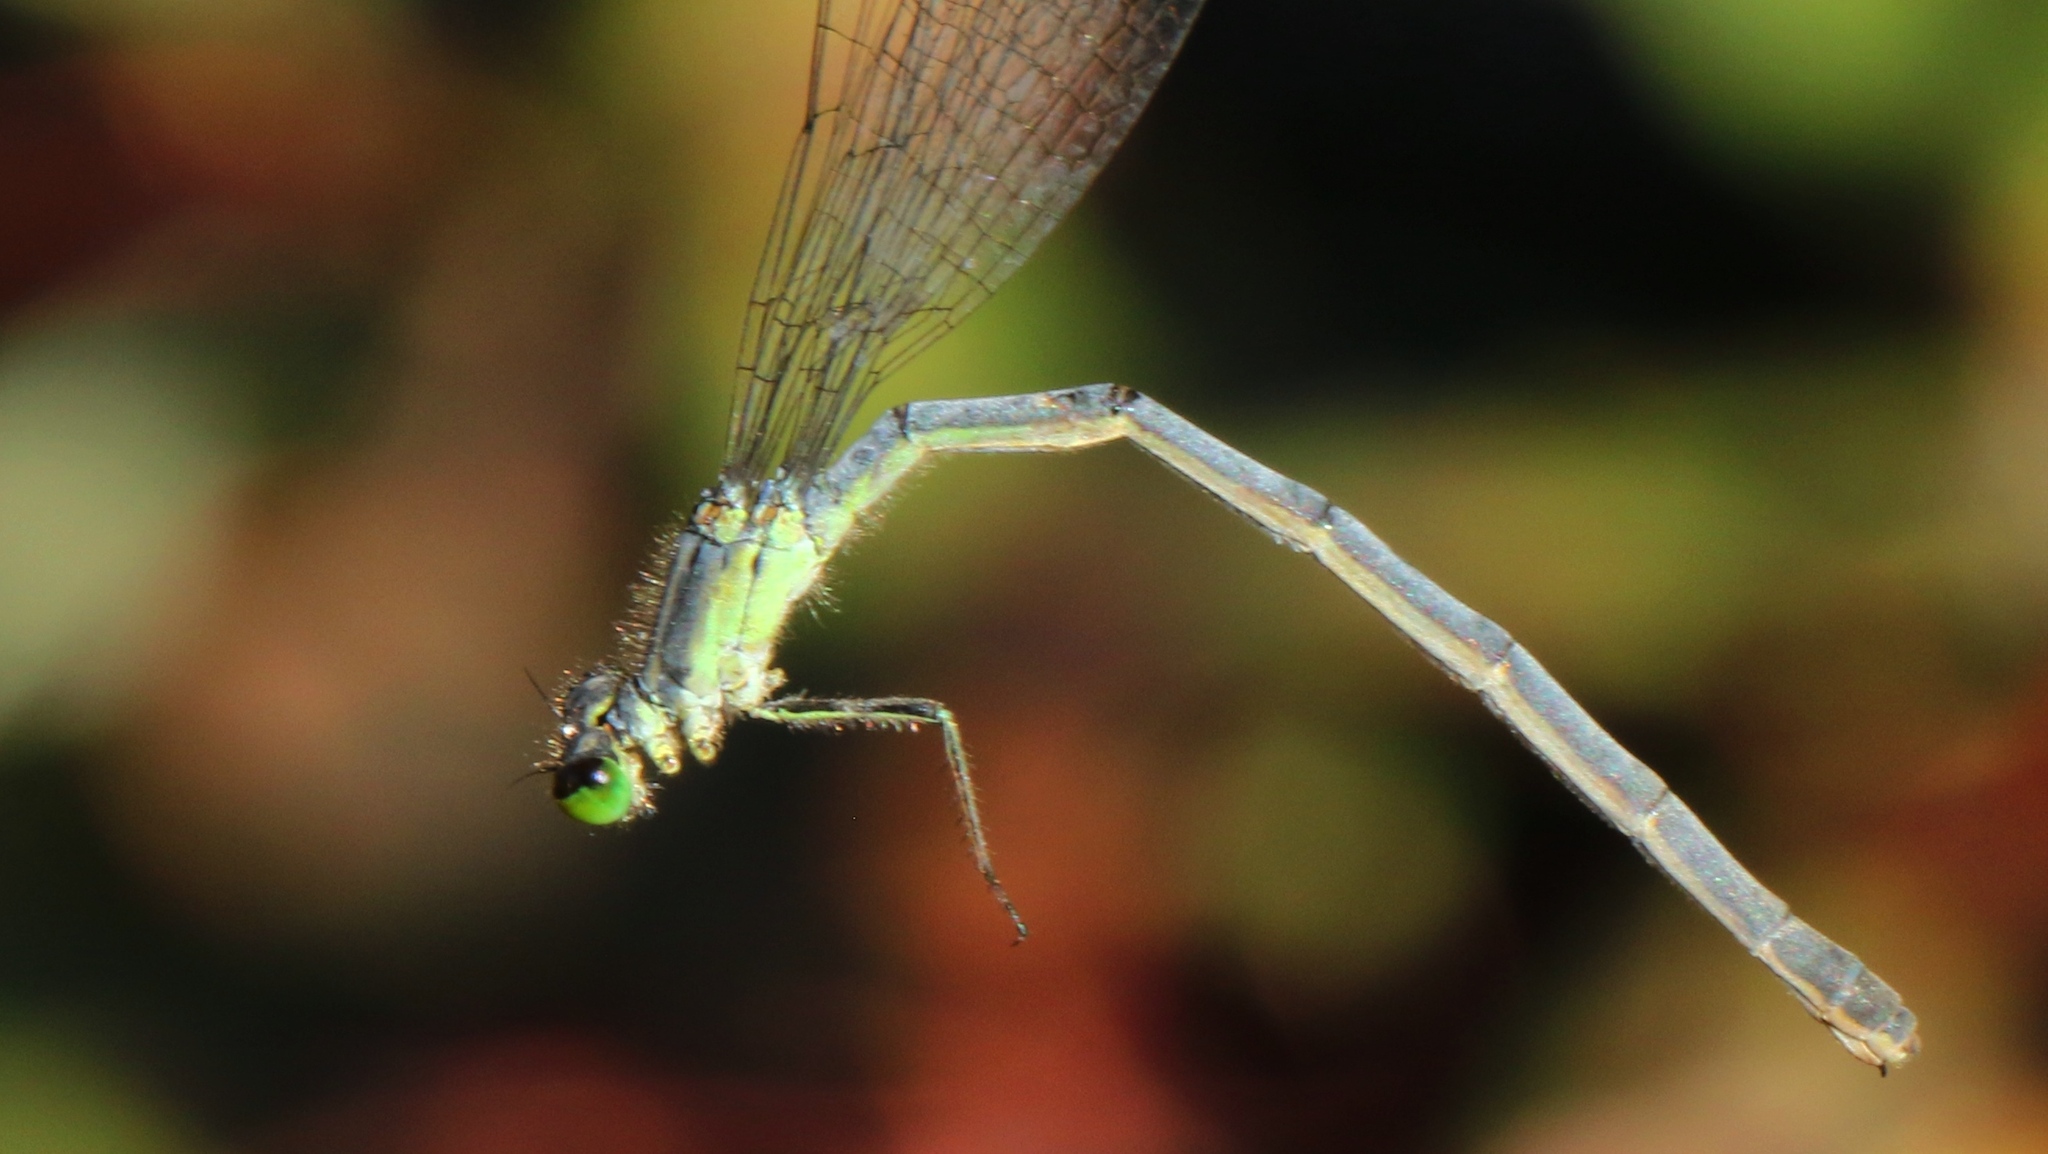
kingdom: Animalia
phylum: Arthropoda
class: Insecta
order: Odonata
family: Coenagrionidae
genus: Ischnura
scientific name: Ischnura verticalis
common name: Eastern forktail
